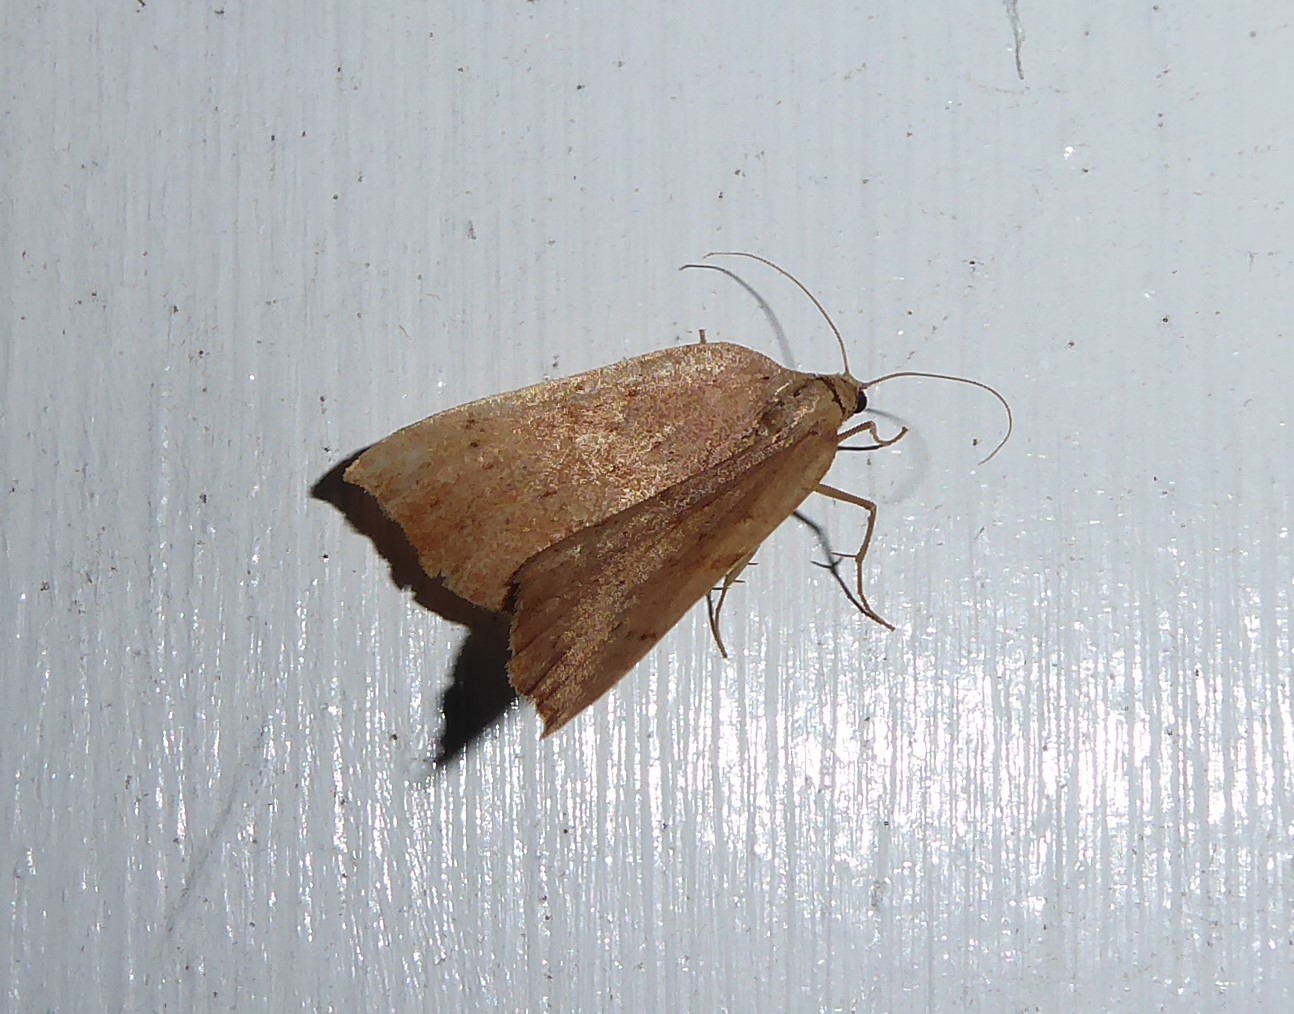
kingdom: Animalia
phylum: Arthropoda
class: Insecta
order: Lepidoptera
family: Geometridae
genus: Sestra
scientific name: Sestra humeraria
